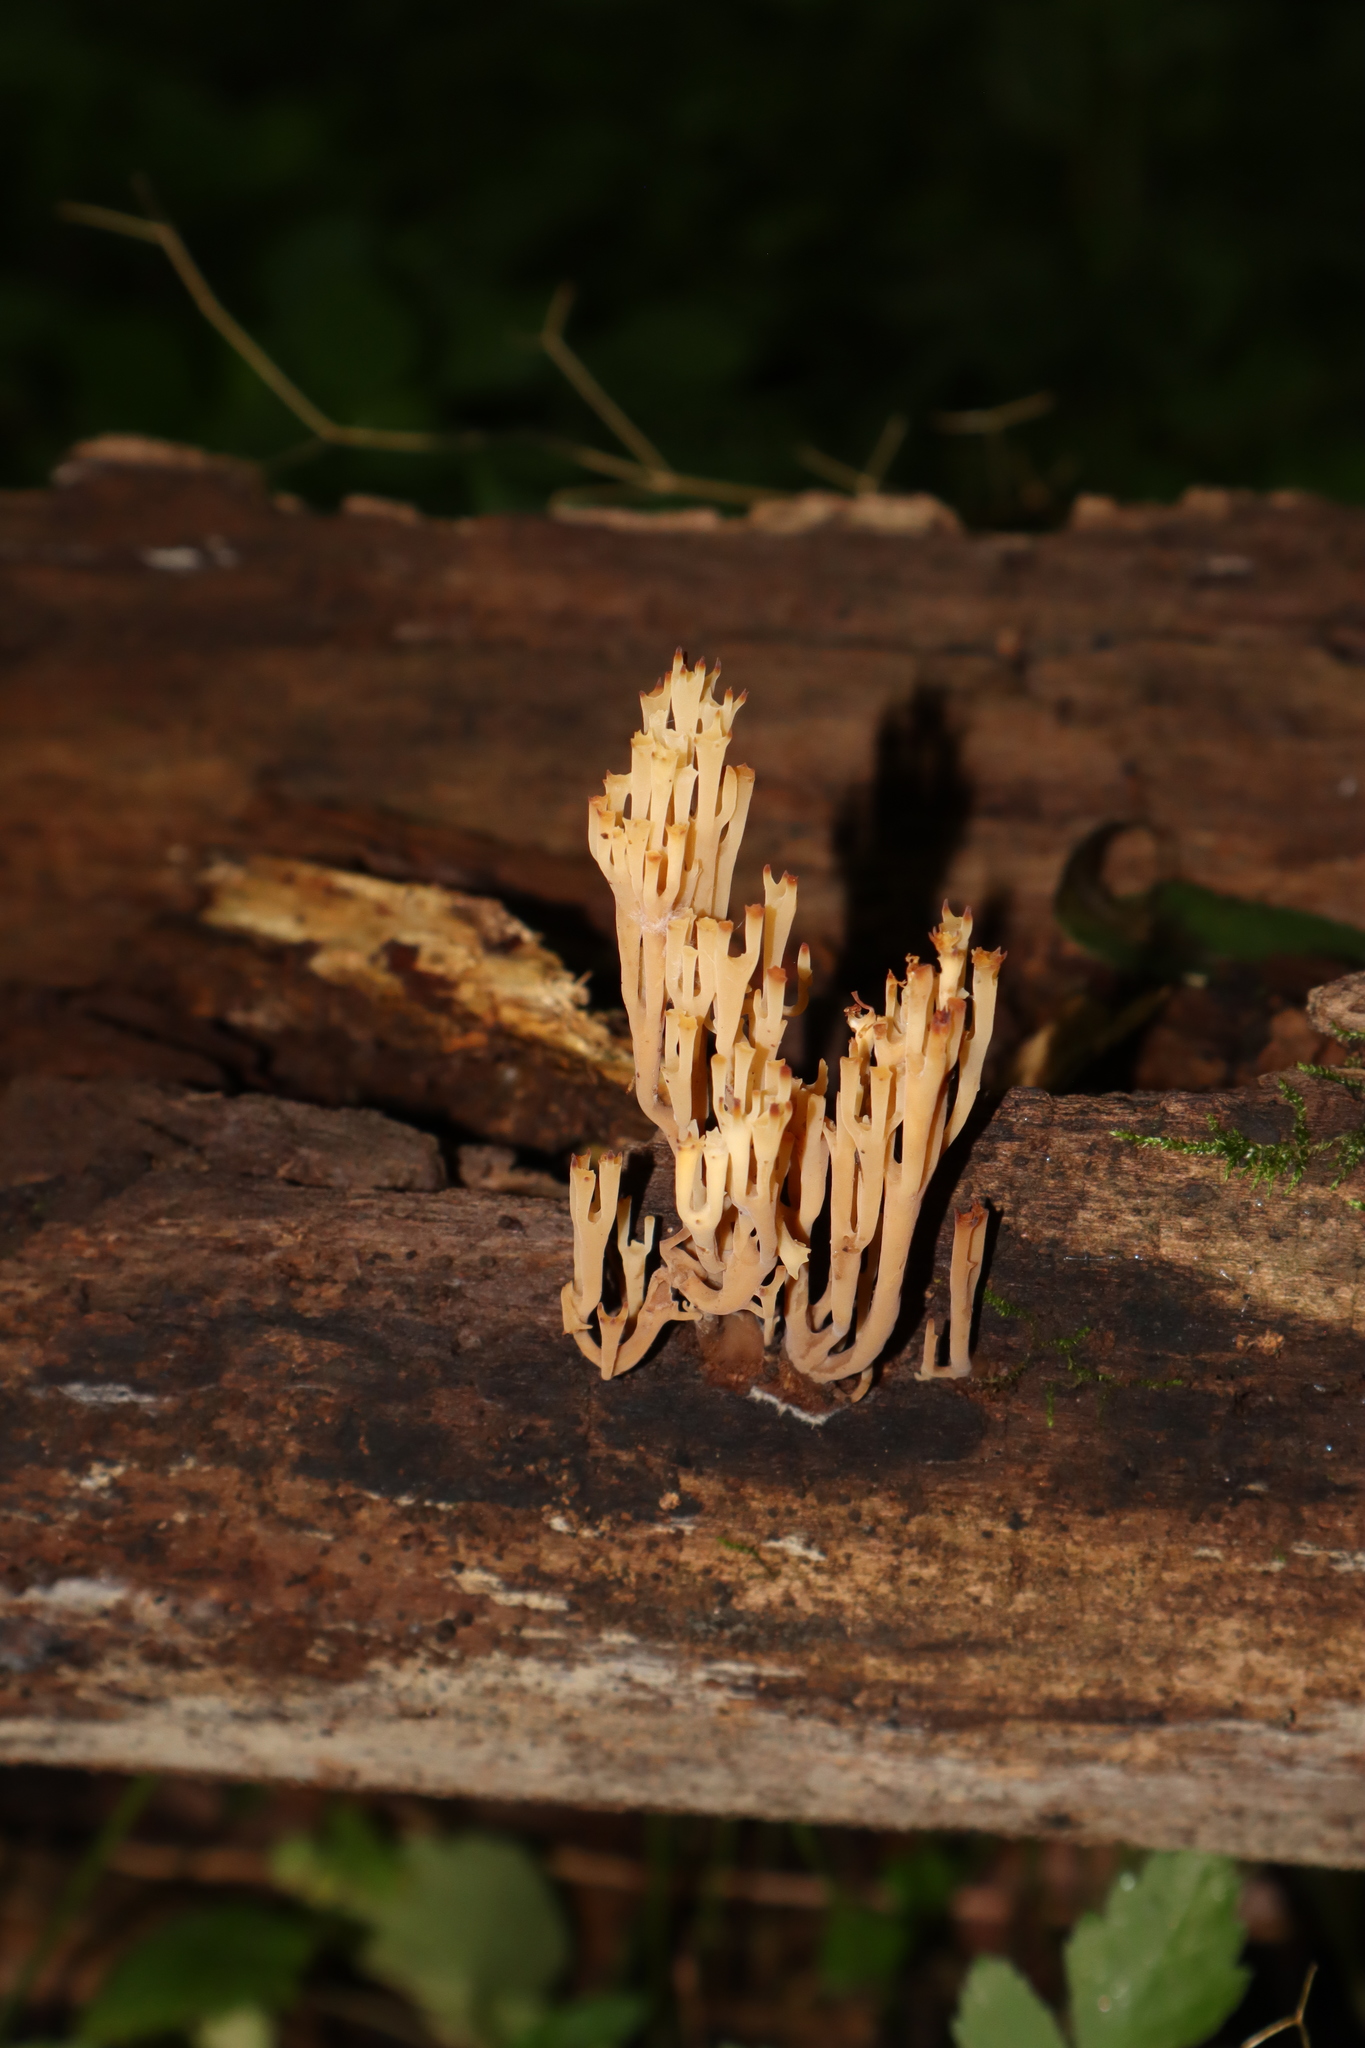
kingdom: Fungi
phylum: Basidiomycota
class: Agaricomycetes
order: Russulales
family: Auriscalpiaceae
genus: Artomyces
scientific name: Artomyces pyxidatus
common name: Crown-tipped coral fungus
